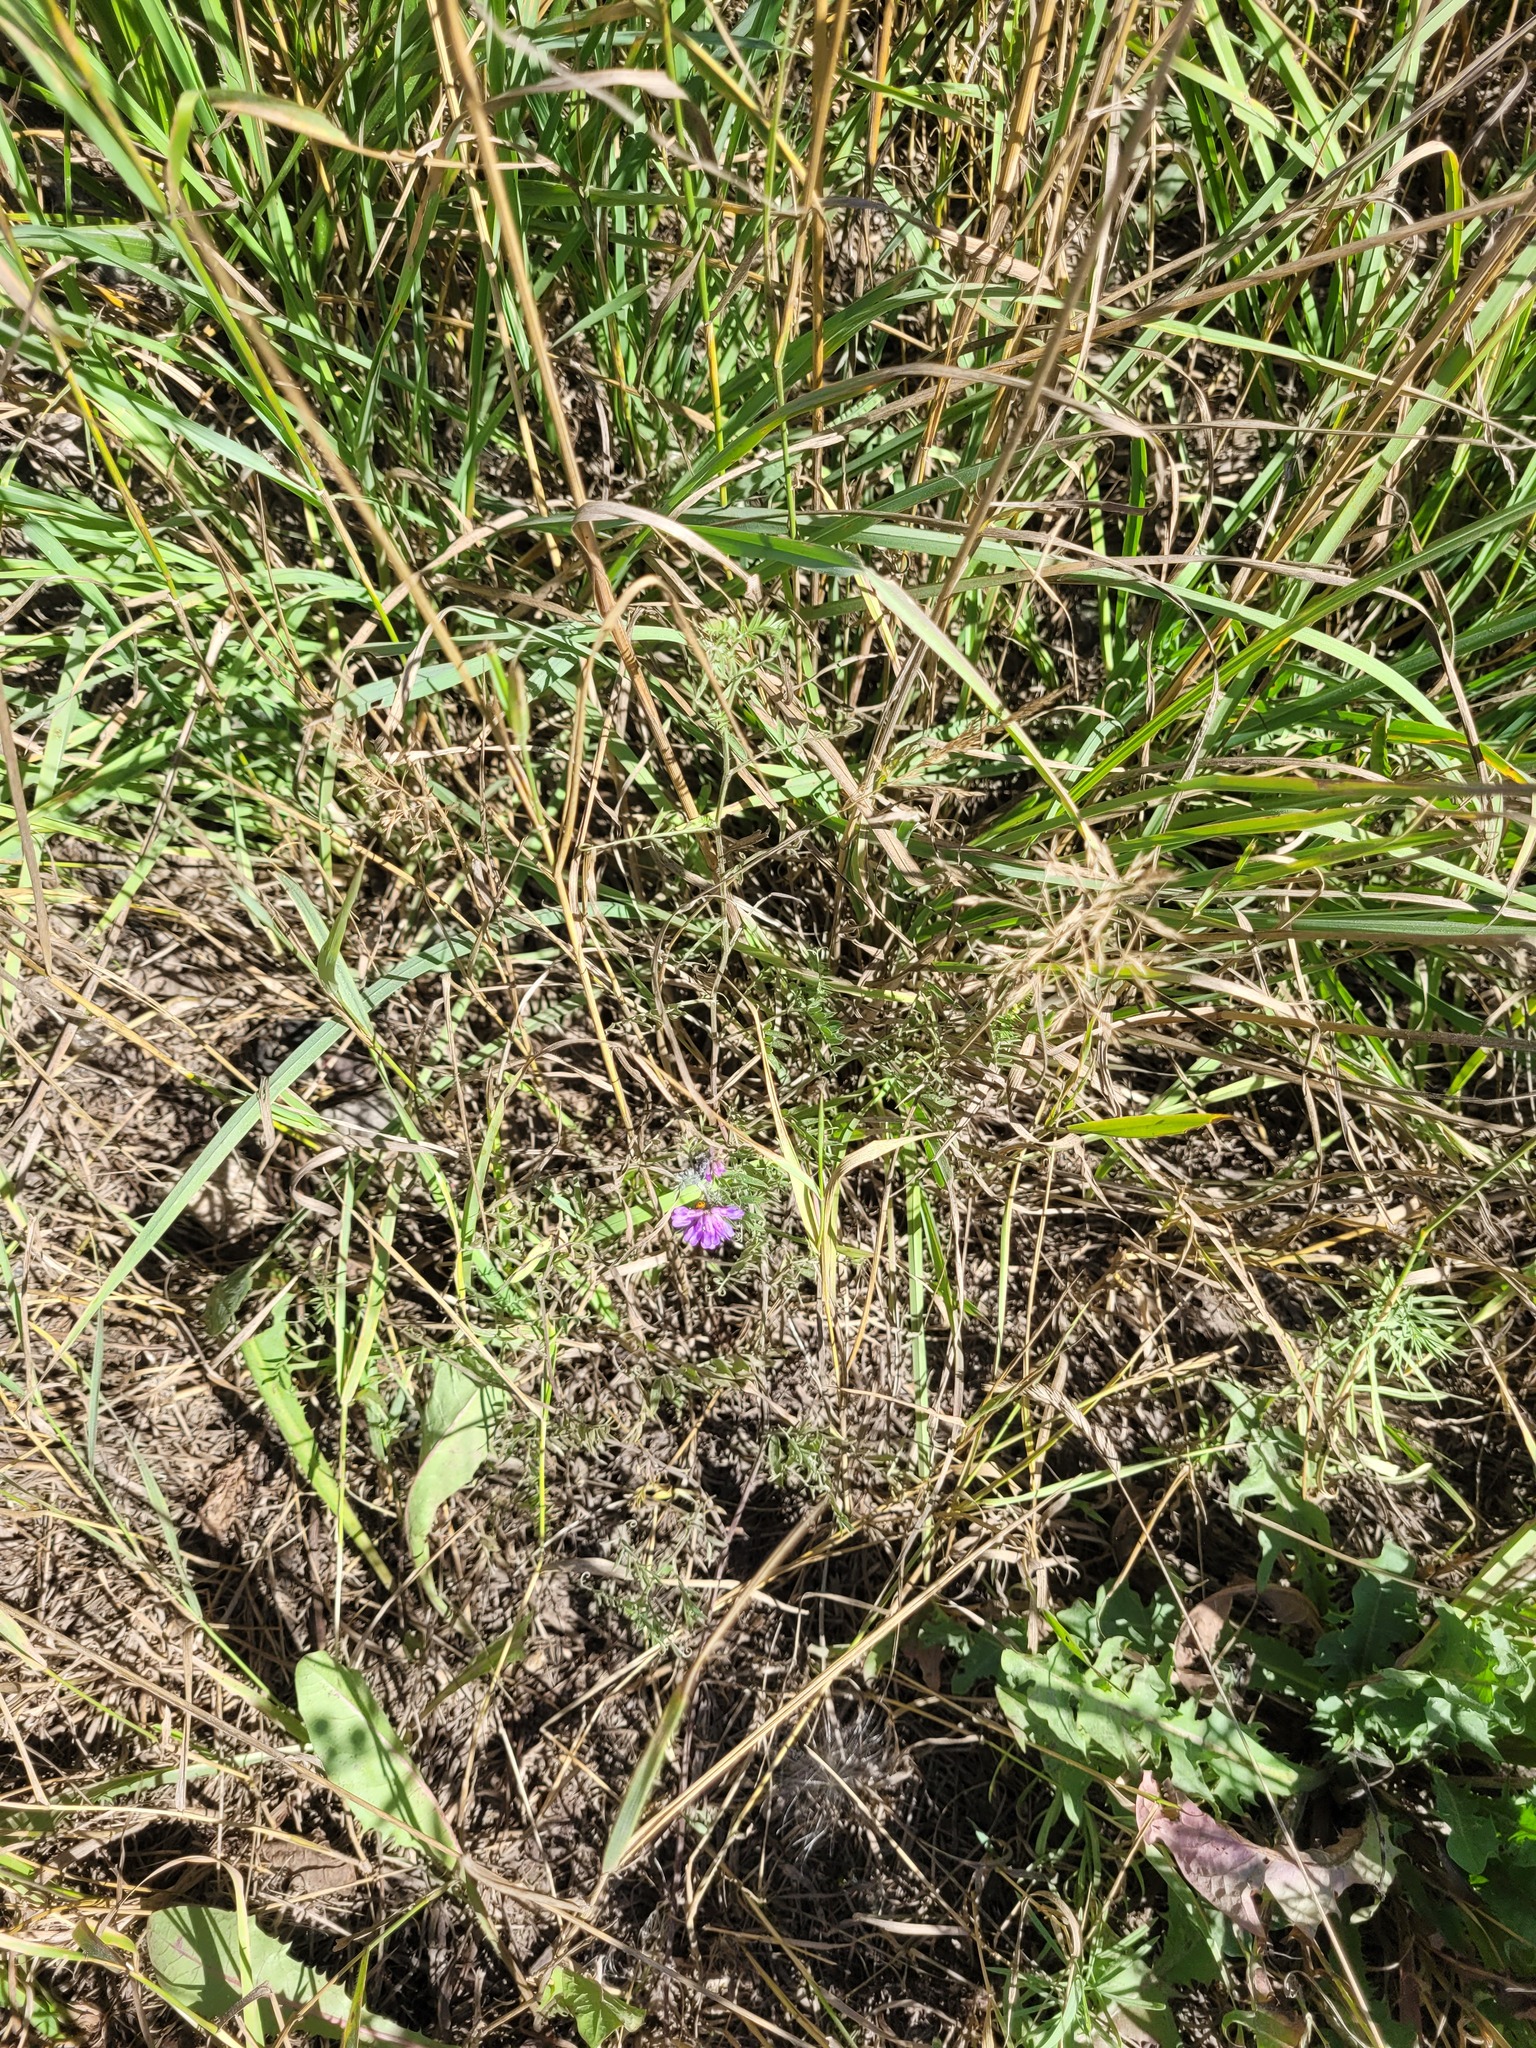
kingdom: Plantae
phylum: Tracheophyta
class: Magnoliopsida
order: Fabales
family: Fabaceae
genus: Vicia
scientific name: Vicia cracca
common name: Bird vetch
